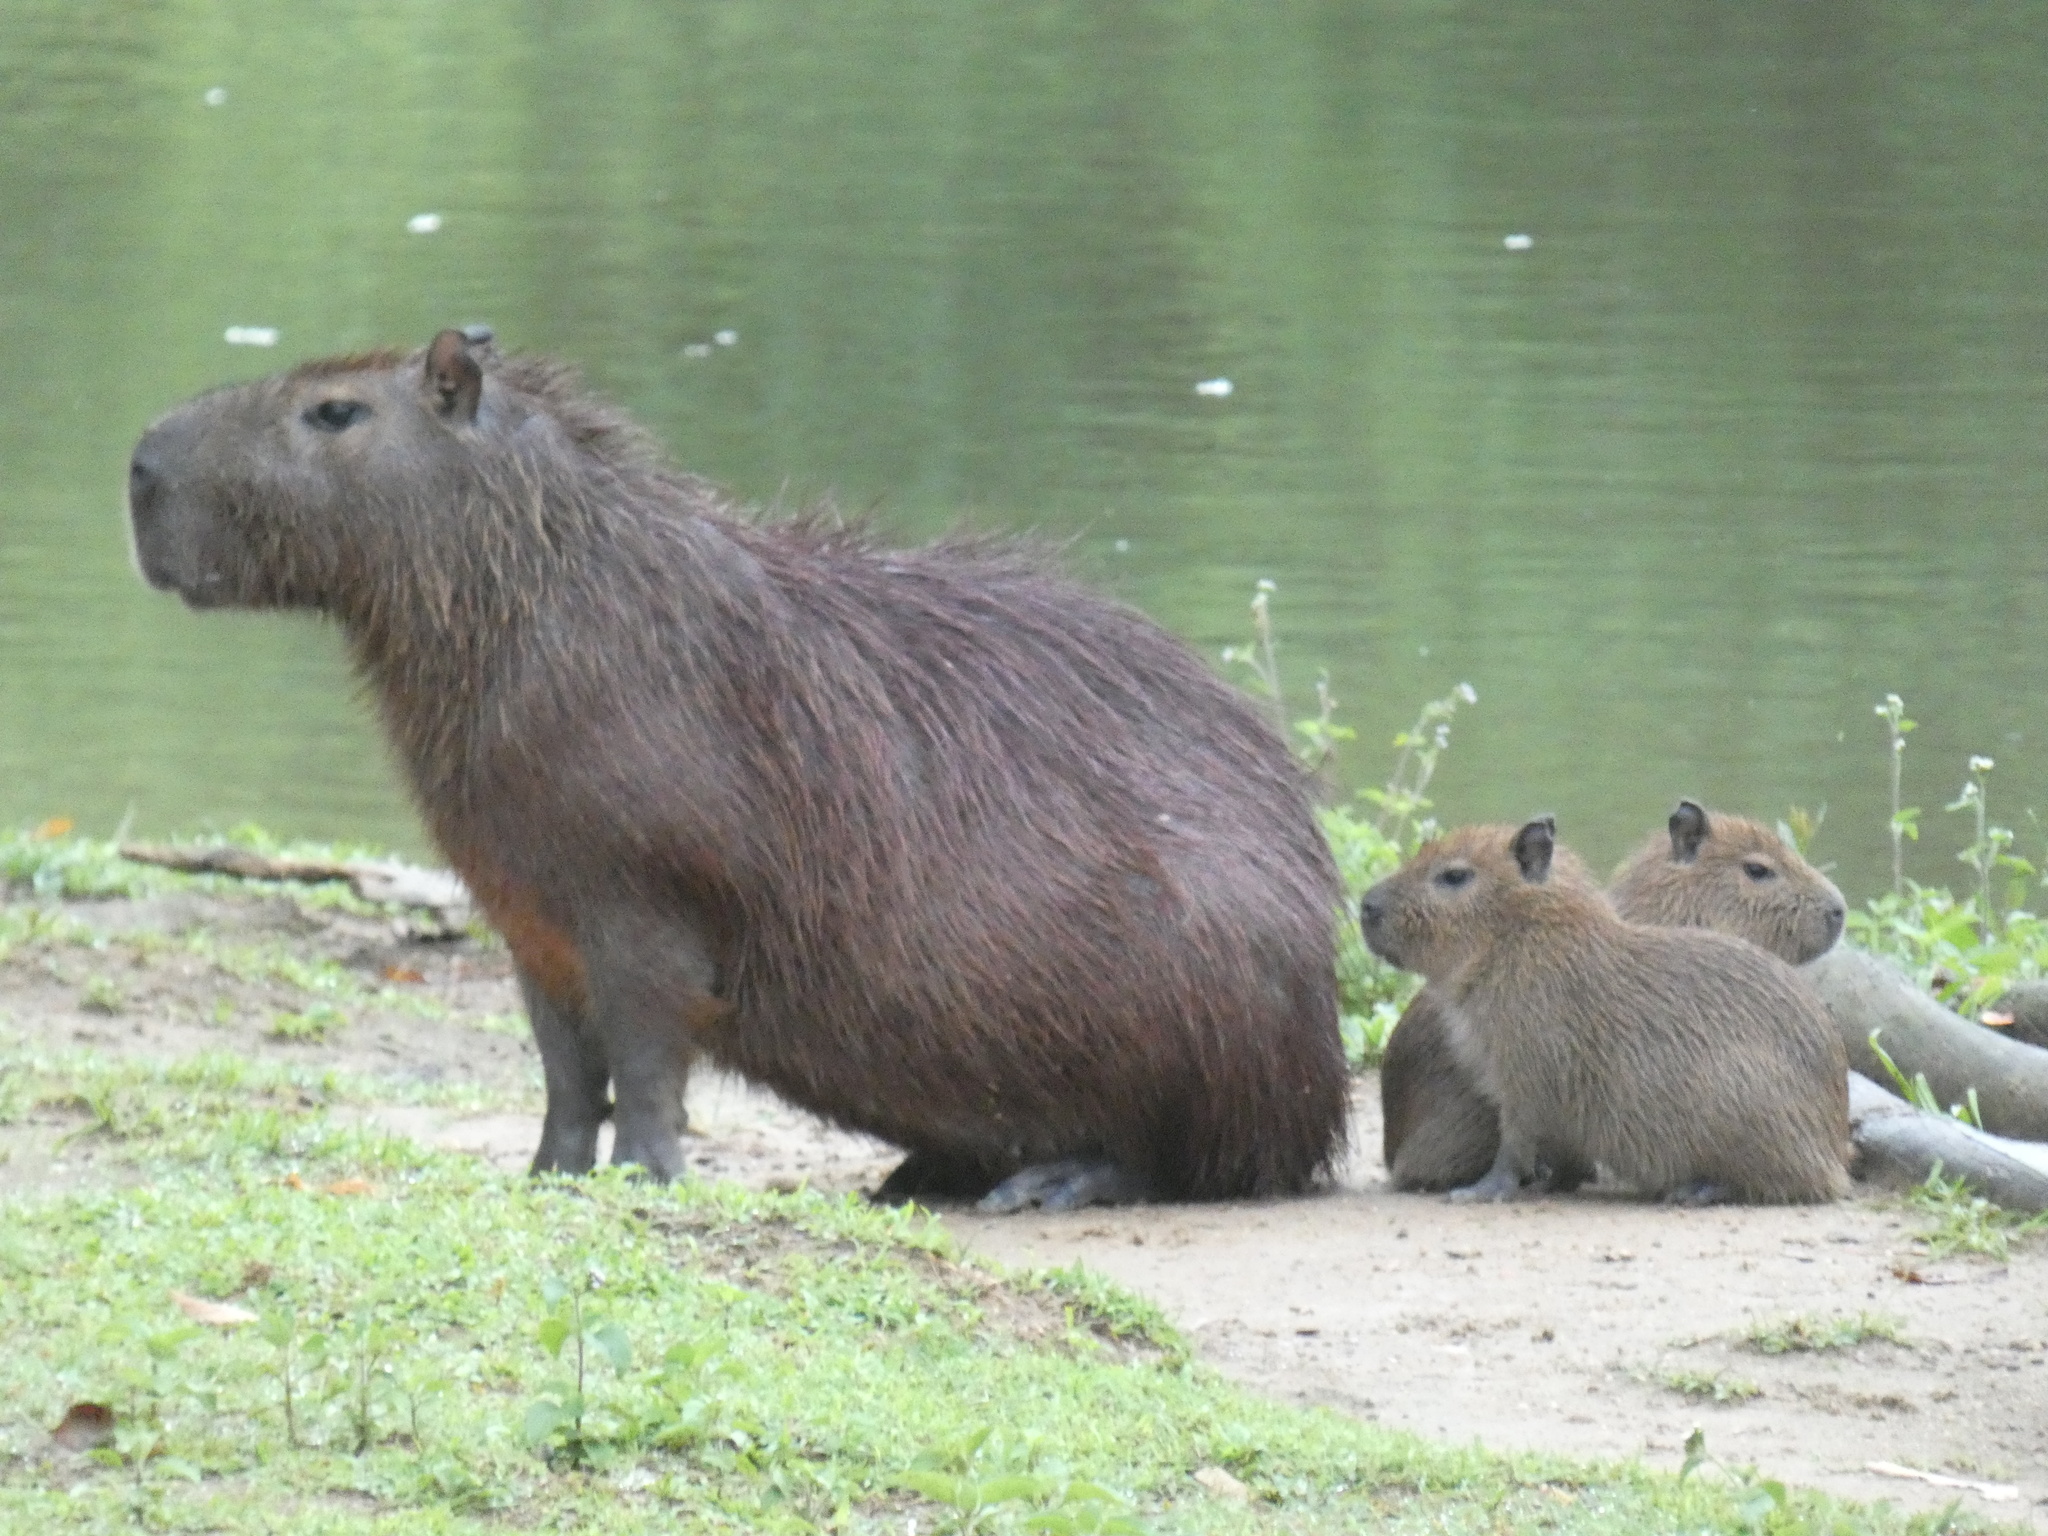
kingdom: Animalia
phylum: Chordata
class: Mammalia
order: Rodentia
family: Caviidae
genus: Hydrochoerus
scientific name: Hydrochoerus hydrochaeris
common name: Capybara
